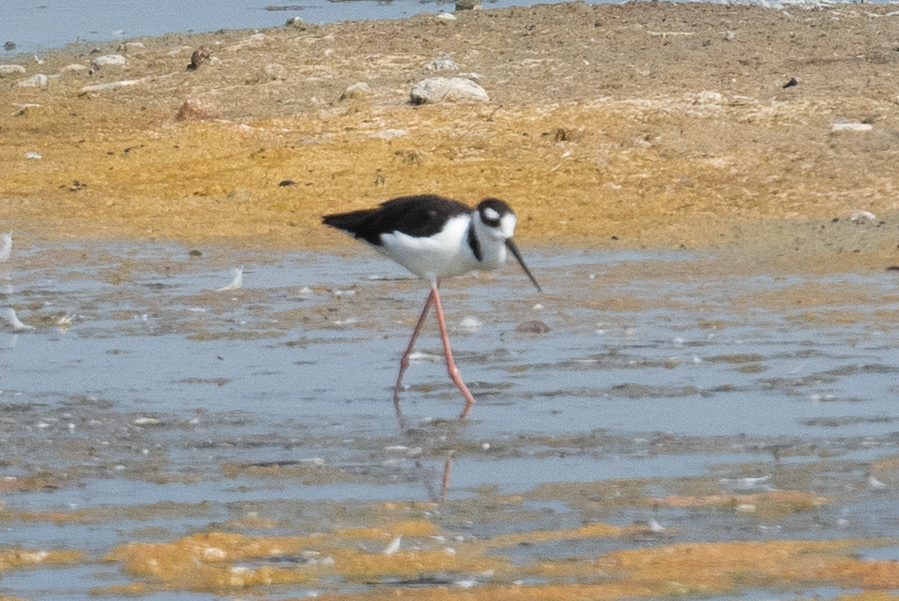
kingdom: Animalia
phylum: Chordata
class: Aves
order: Charadriiformes
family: Recurvirostridae
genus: Himantopus
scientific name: Himantopus mexicanus
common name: Black-necked stilt
